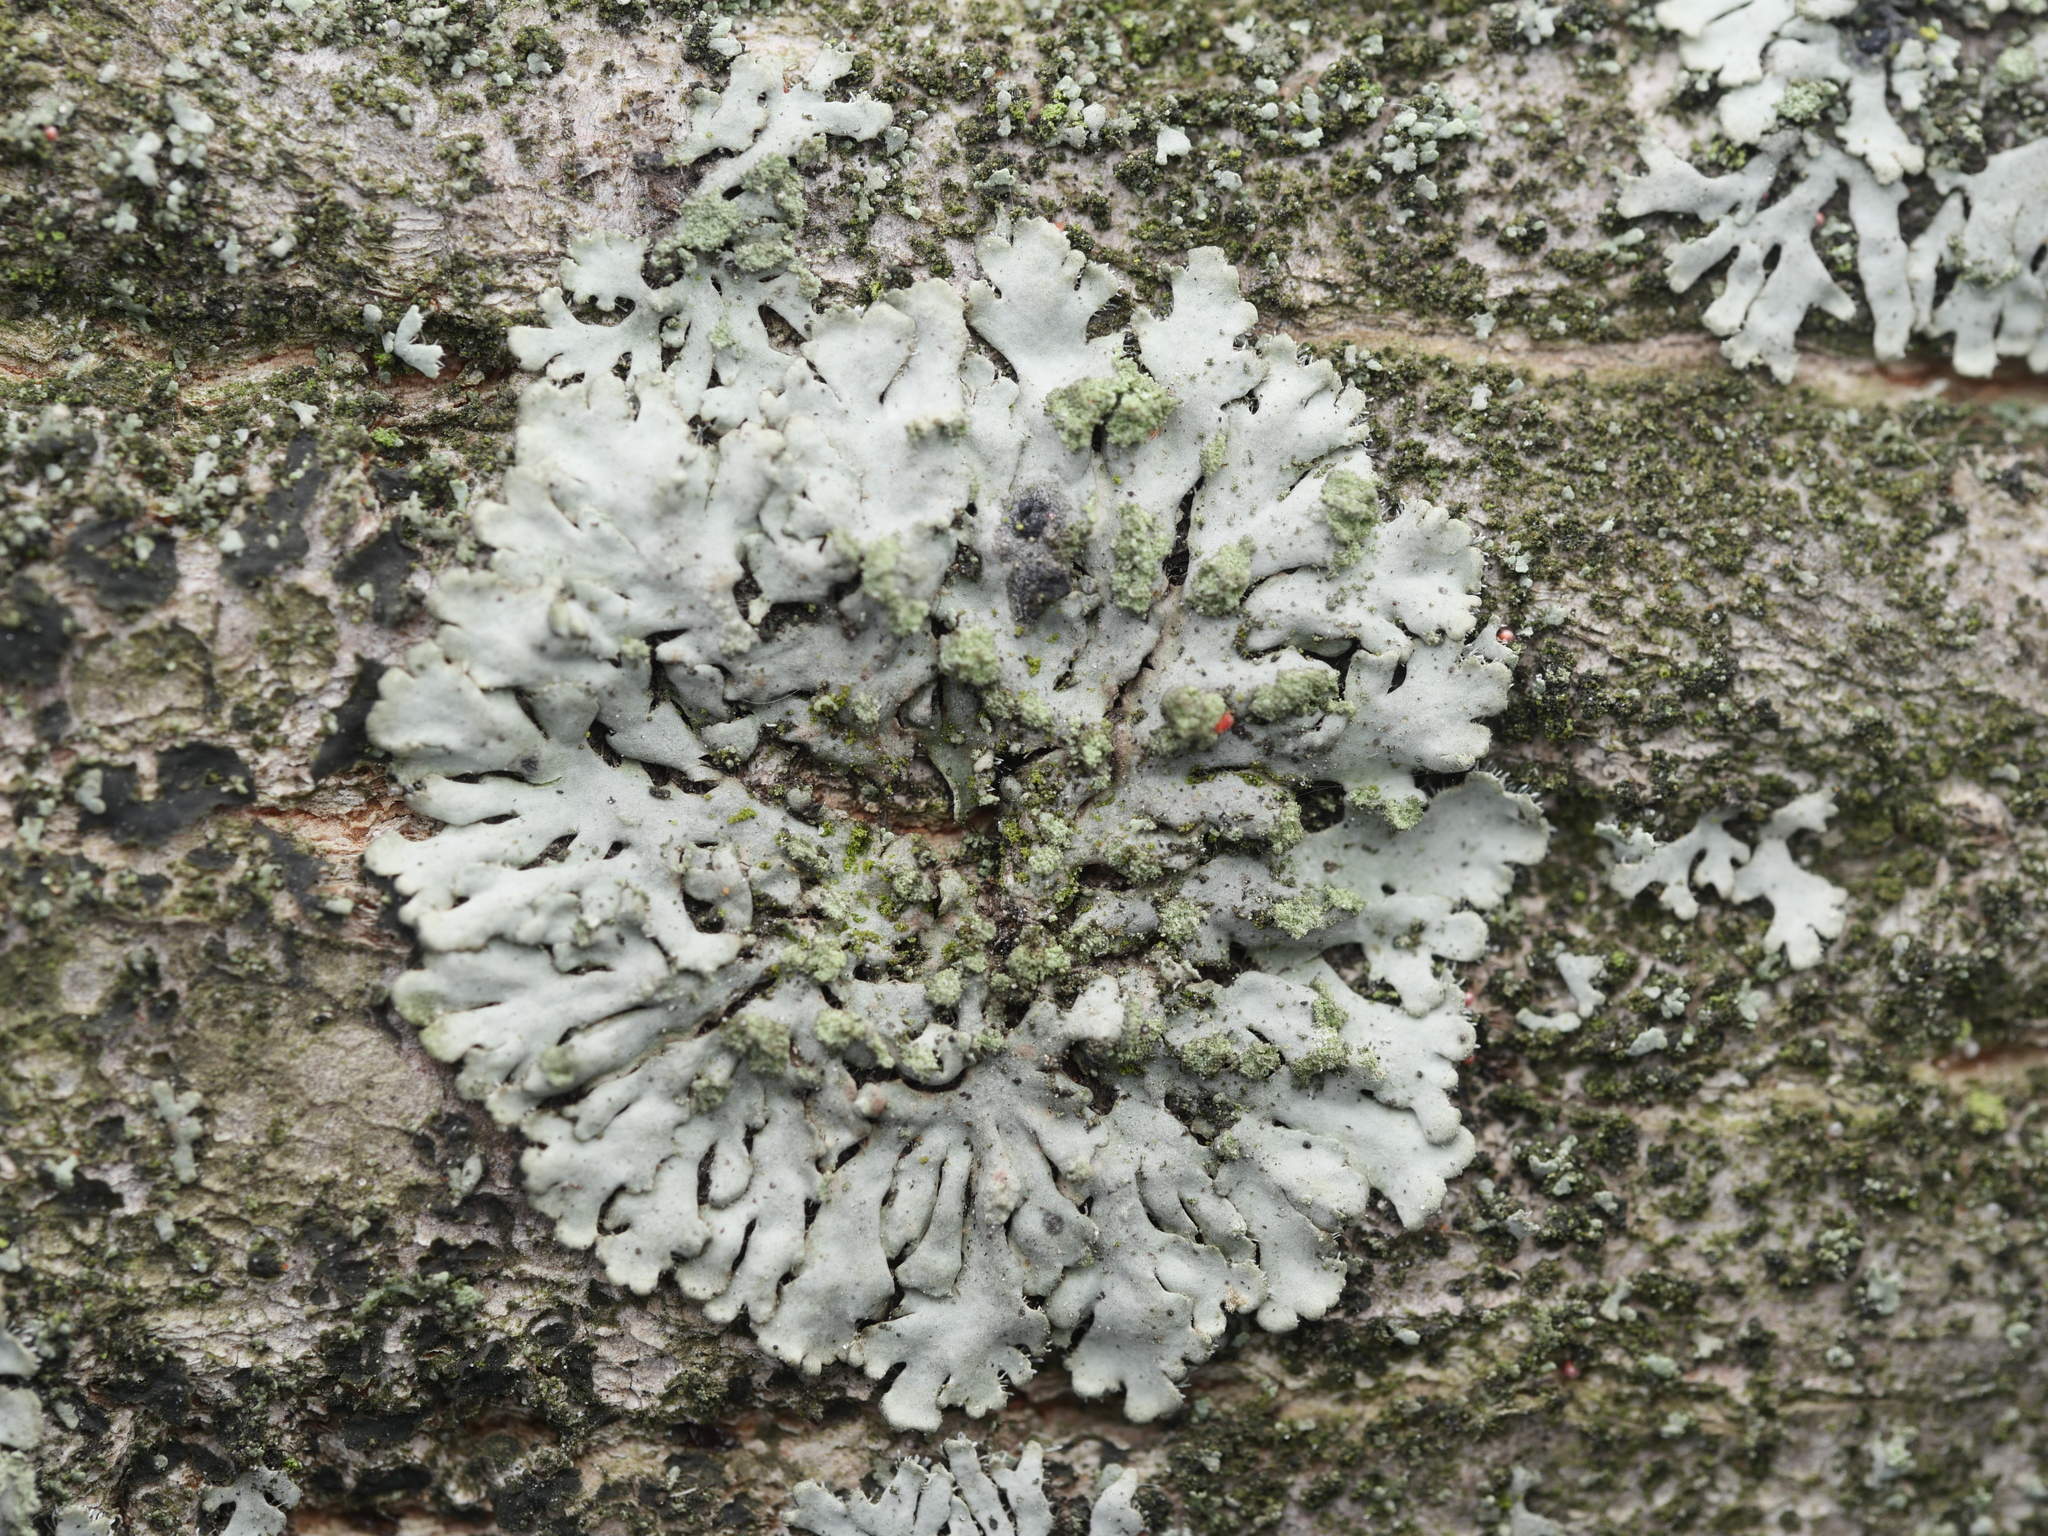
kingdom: Fungi
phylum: Ascomycota
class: Lecanoromycetes
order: Caliciales
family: Physciaceae
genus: Phaeophyscia
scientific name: Phaeophyscia orbicularis
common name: Mealy shadow lichen
